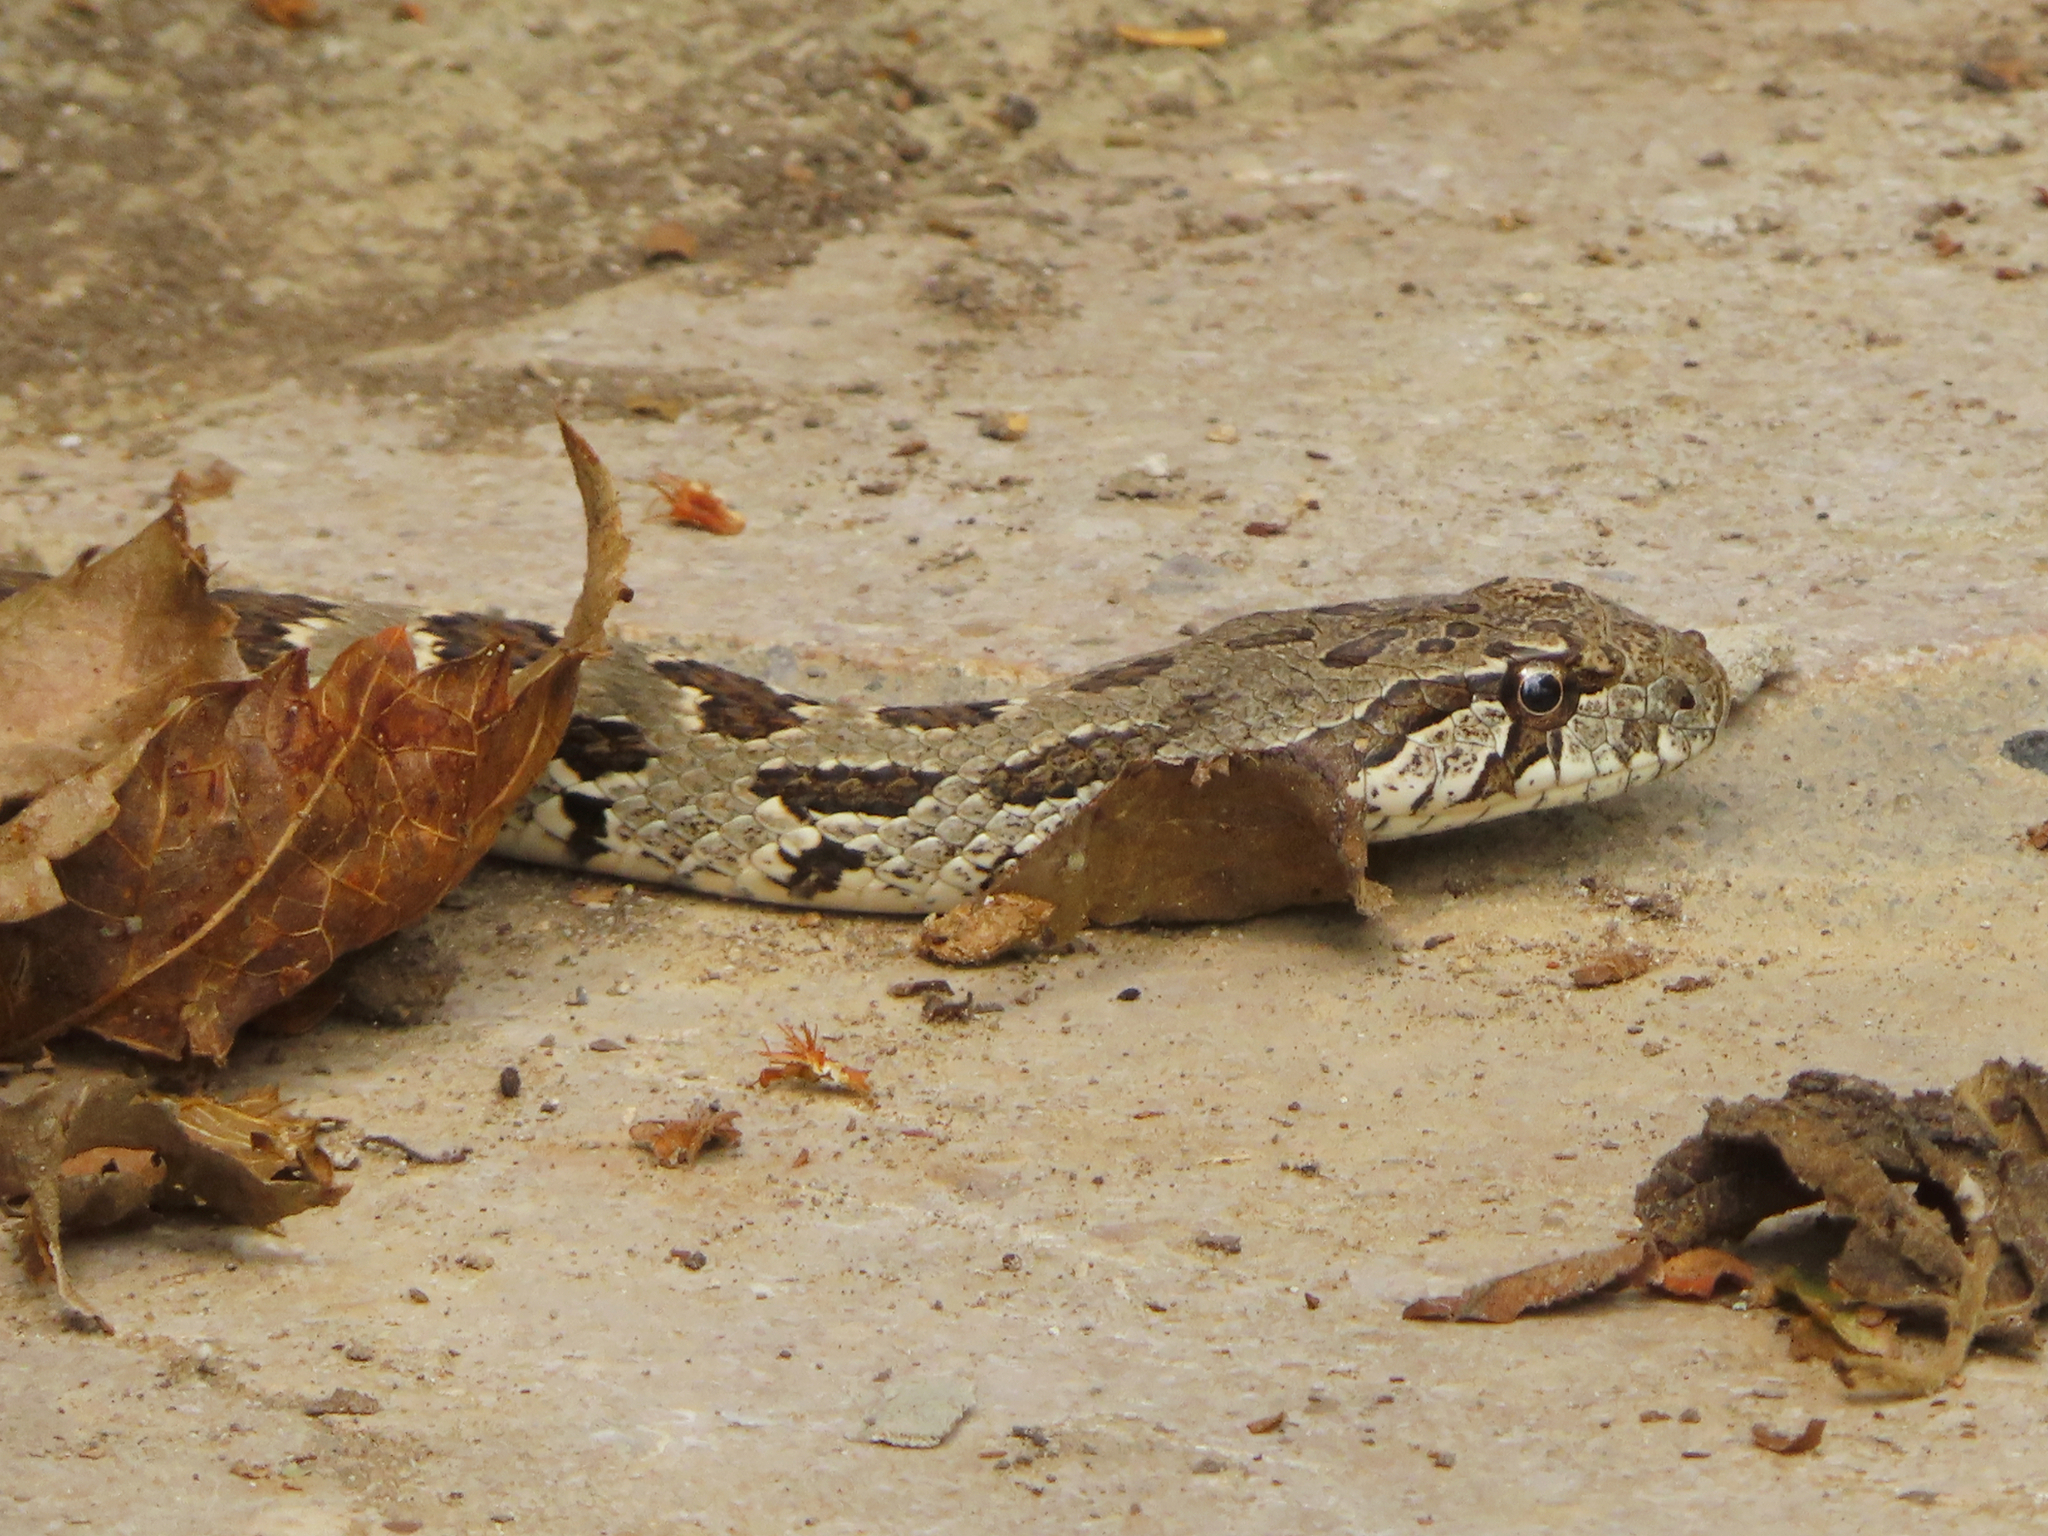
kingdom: Animalia
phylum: Chordata
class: Squamata
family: Colubridae
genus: Hemorrhois
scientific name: Hemorrhois ravergieri
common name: Spotted whip snake
